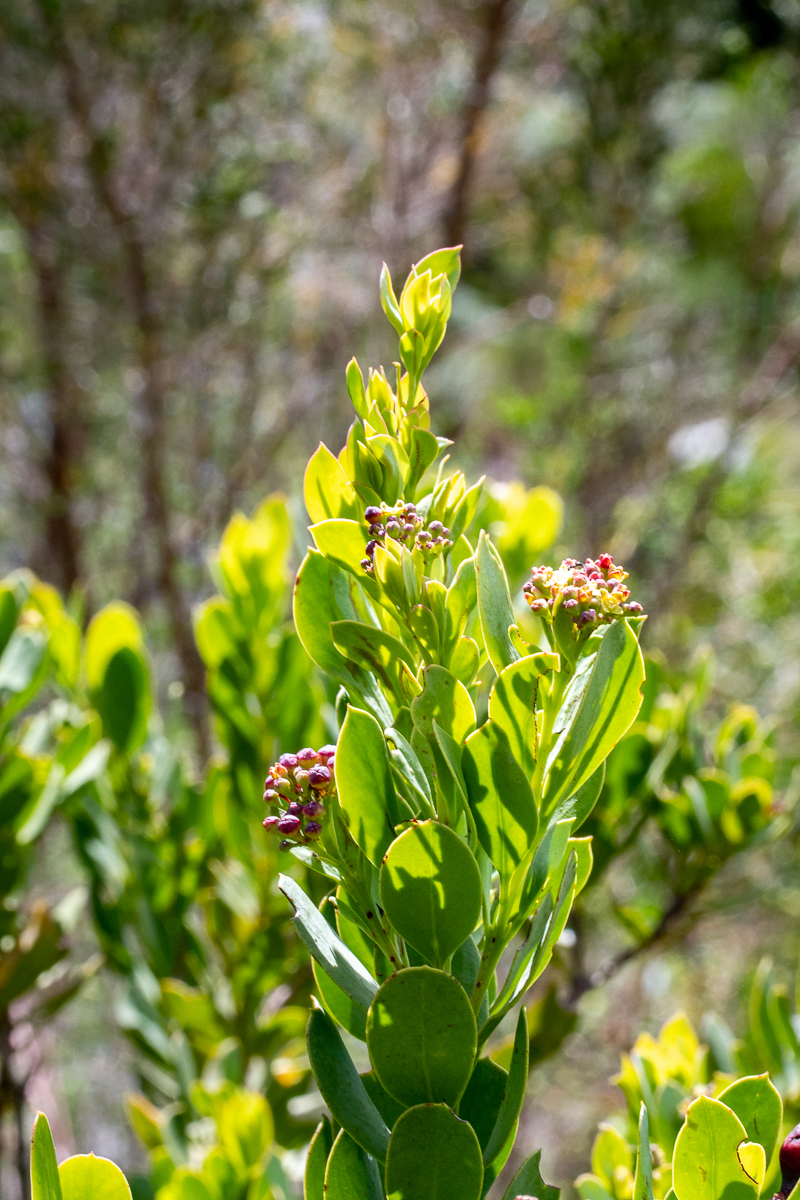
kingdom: Plantae
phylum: Tracheophyta
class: Magnoliopsida
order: Santalales
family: Santalaceae
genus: Osyris
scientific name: Osyris compressa
